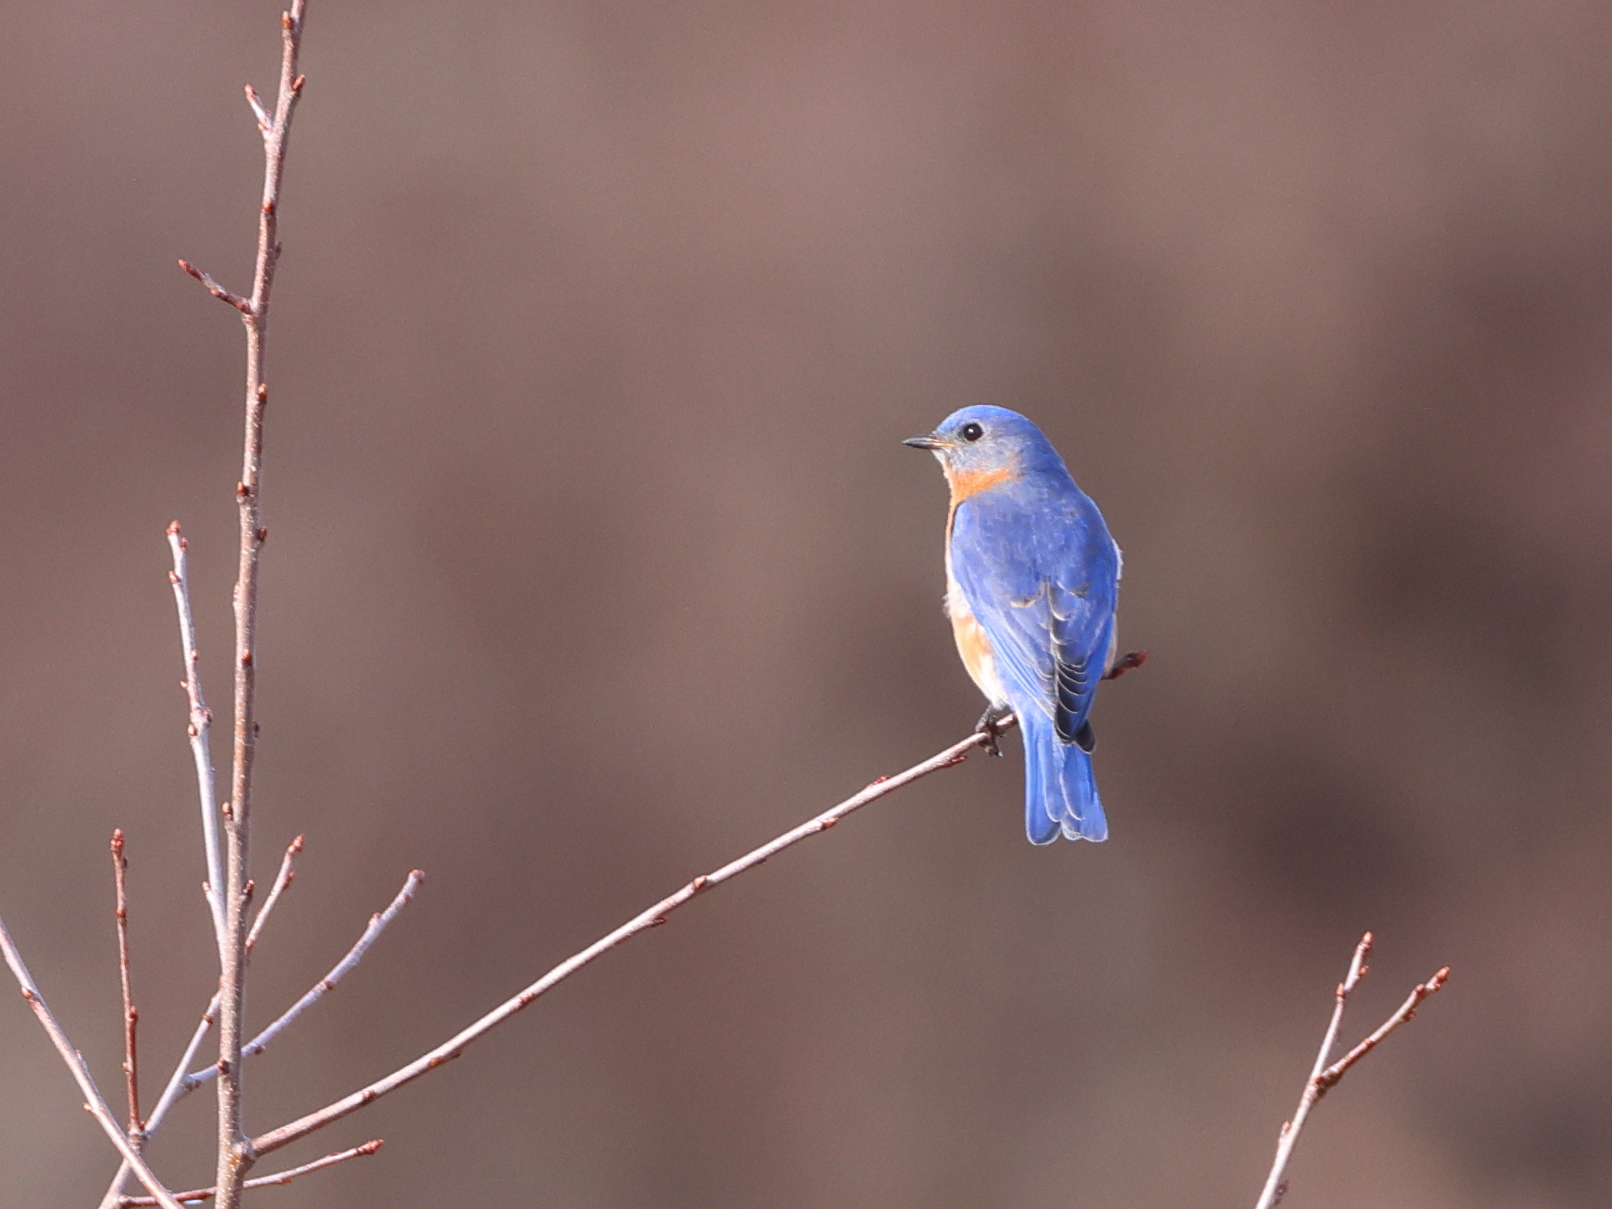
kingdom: Animalia
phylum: Chordata
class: Aves
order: Passeriformes
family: Turdidae
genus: Sialia
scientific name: Sialia sialis
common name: Eastern bluebird
